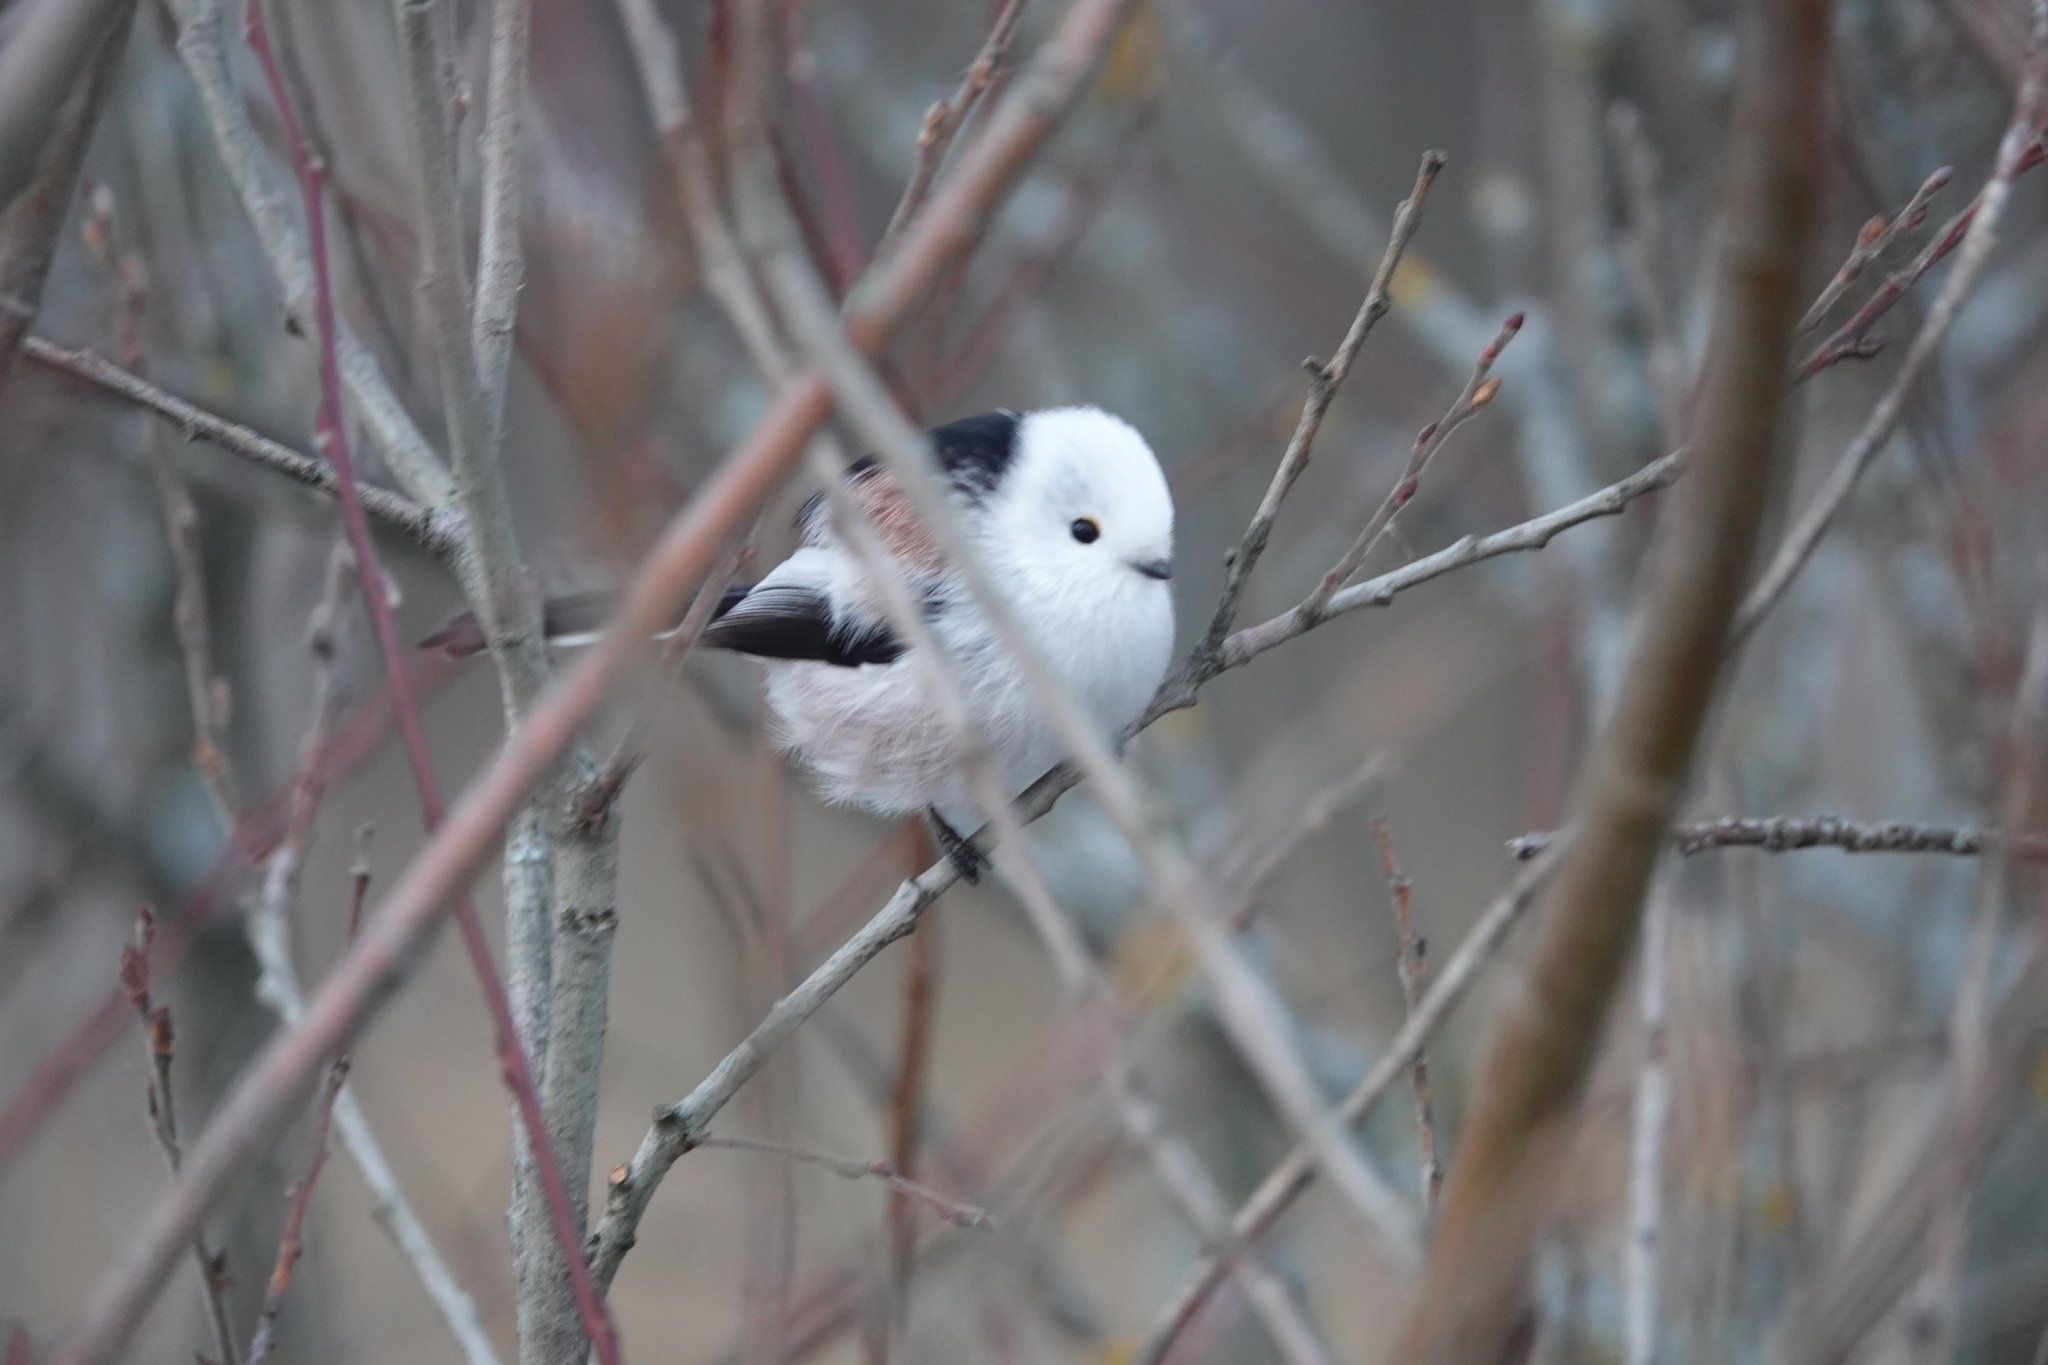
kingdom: Animalia
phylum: Chordata
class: Aves
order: Passeriformes
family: Aegithalidae
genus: Aegithalos
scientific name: Aegithalos caudatus
